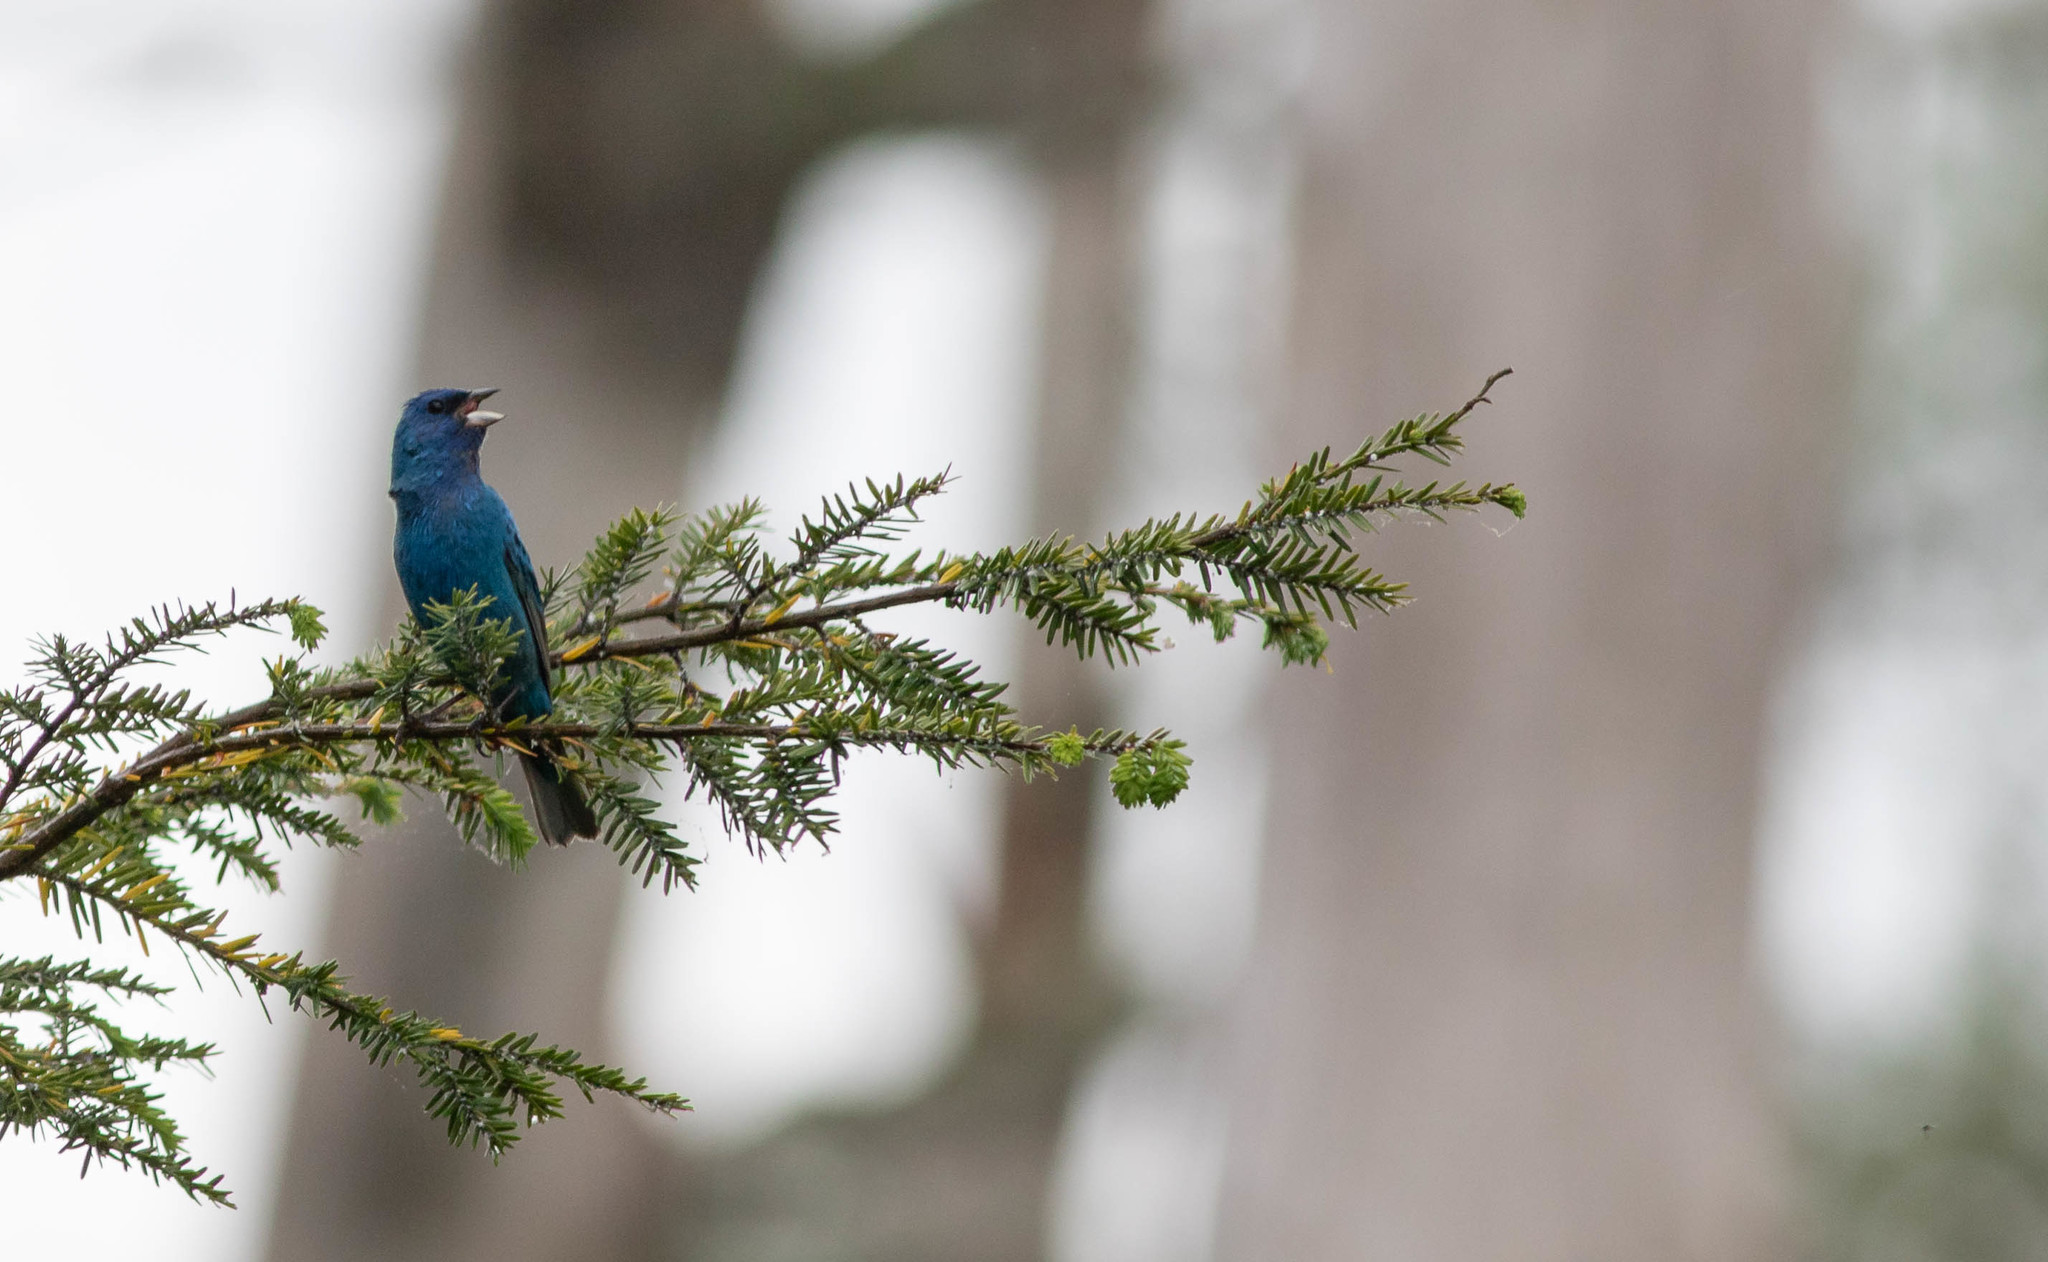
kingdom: Animalia
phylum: Chordata
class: Aves
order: Passeriformes
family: Cardinalidae
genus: Passerina
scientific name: Passerina cyanea
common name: Indigo bunting
